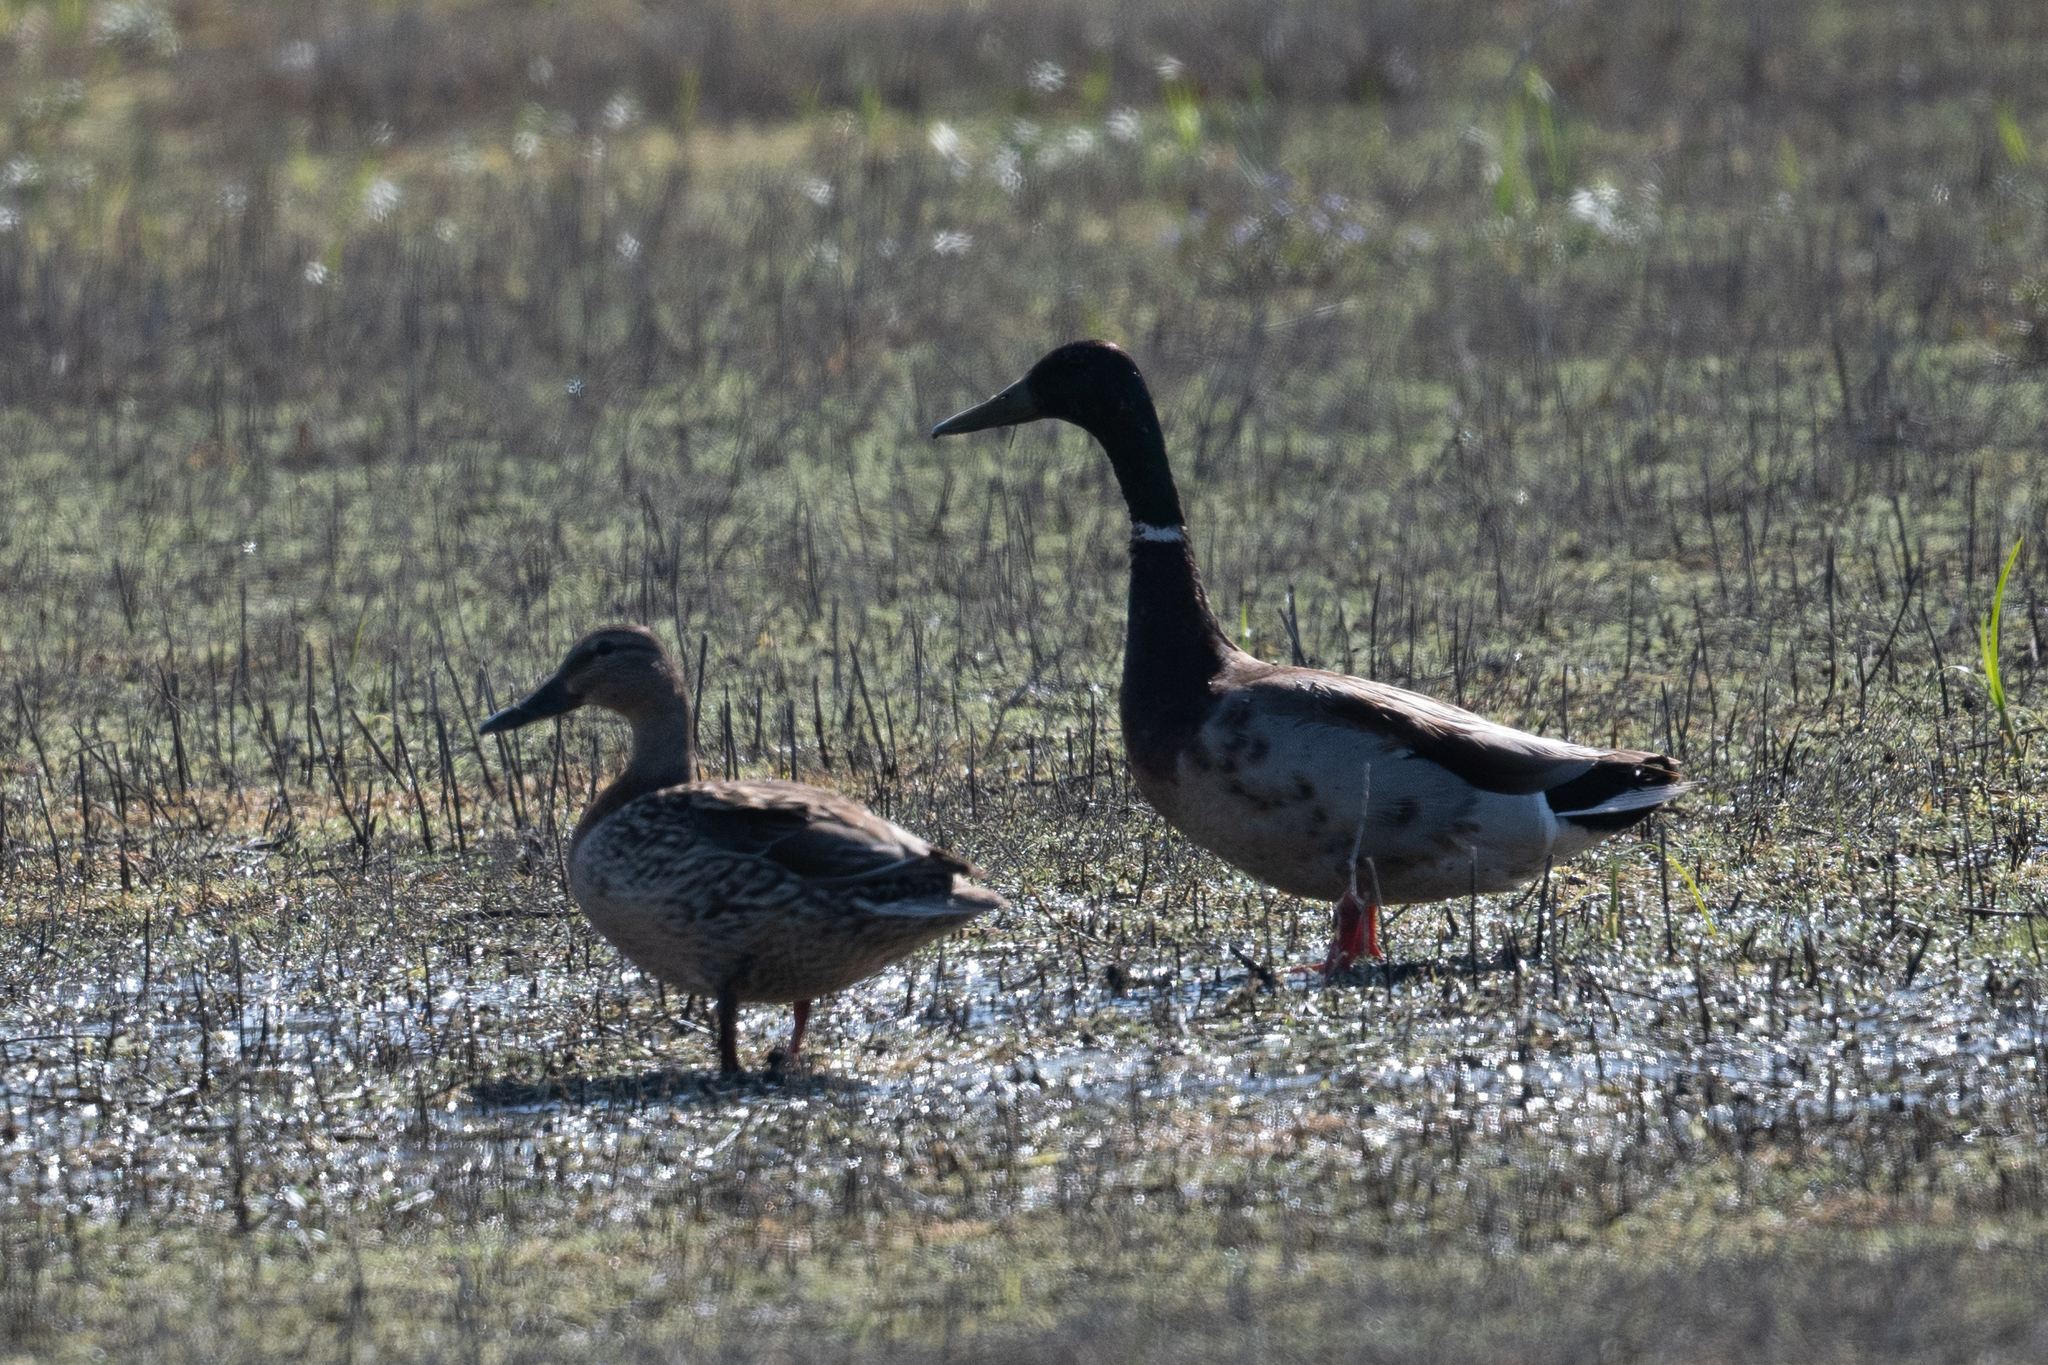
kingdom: Animalia
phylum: Chordata
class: Aves
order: Anseriformes
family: Anatidae
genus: Anas
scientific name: Anas platyrhynchos
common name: Mallard
